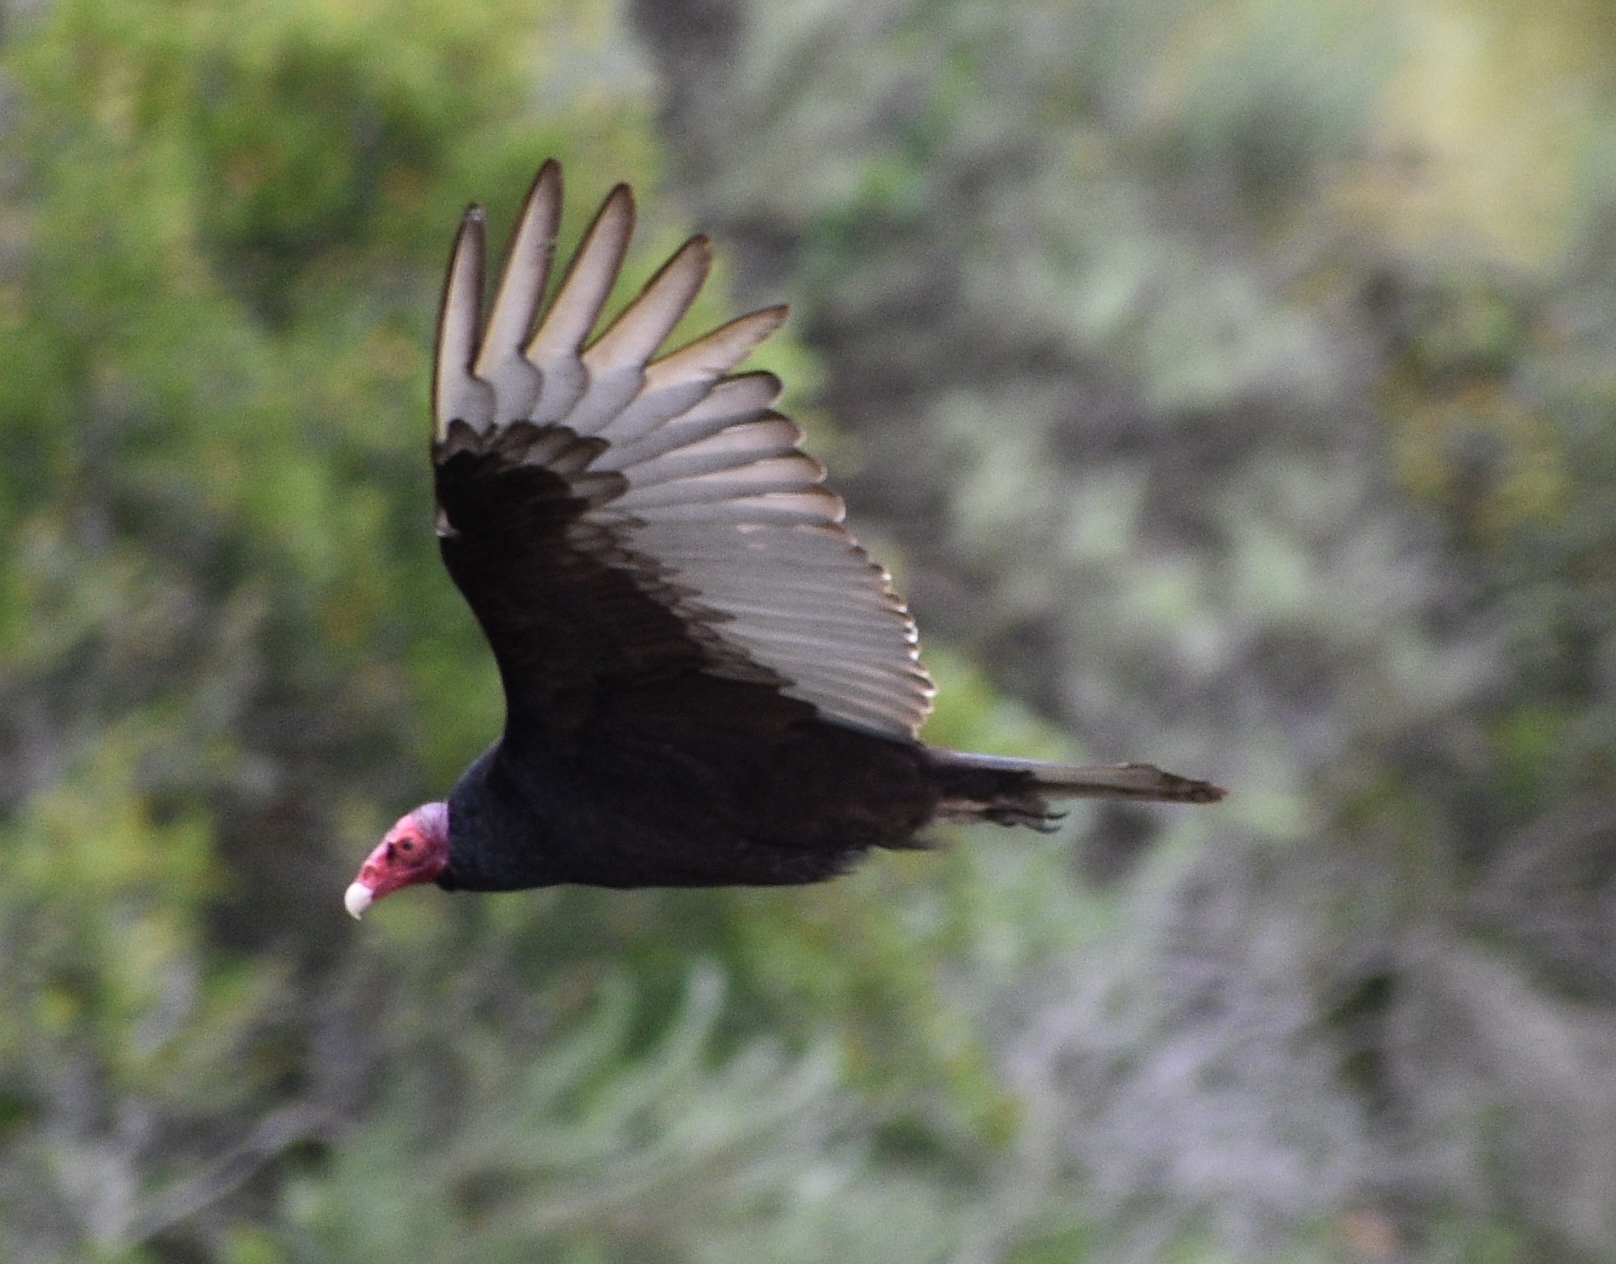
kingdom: Animalia
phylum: Chordata
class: Aves
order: Accipitriformes
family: Cathartidae
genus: Cathartes
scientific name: Cathartes aura
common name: Turkey vulture
